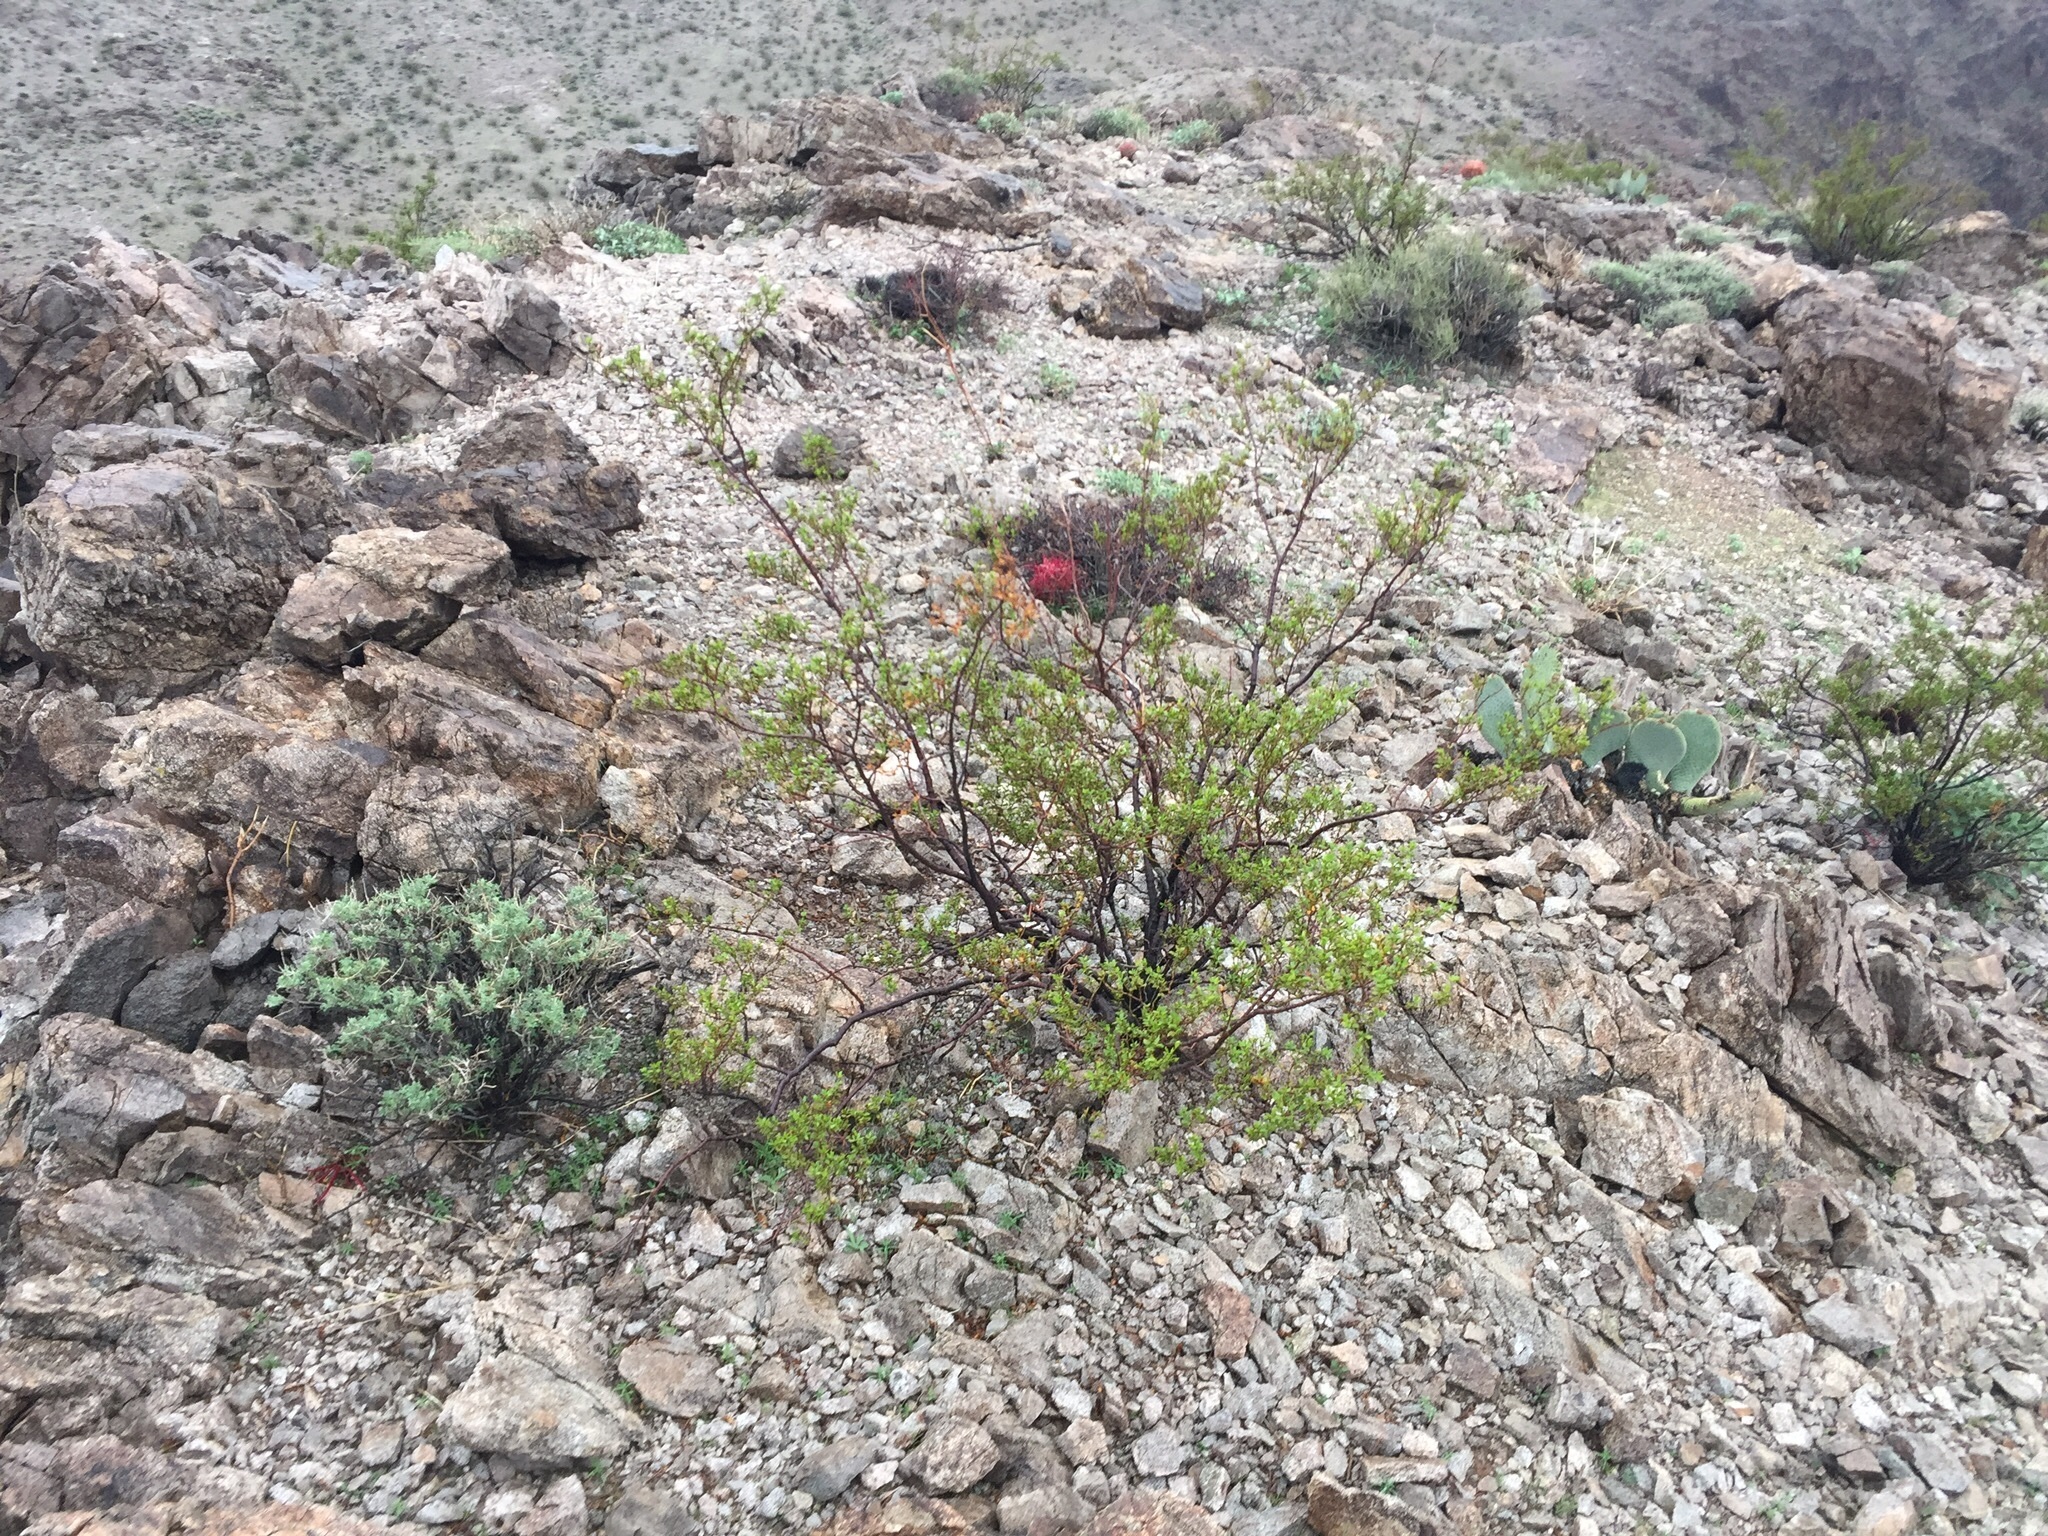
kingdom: Plantae
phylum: Tracheophyta
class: Magnoliopsida
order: Zygophyllales
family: Zygophyllaceae
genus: Larrea
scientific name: Larrea tridentata
